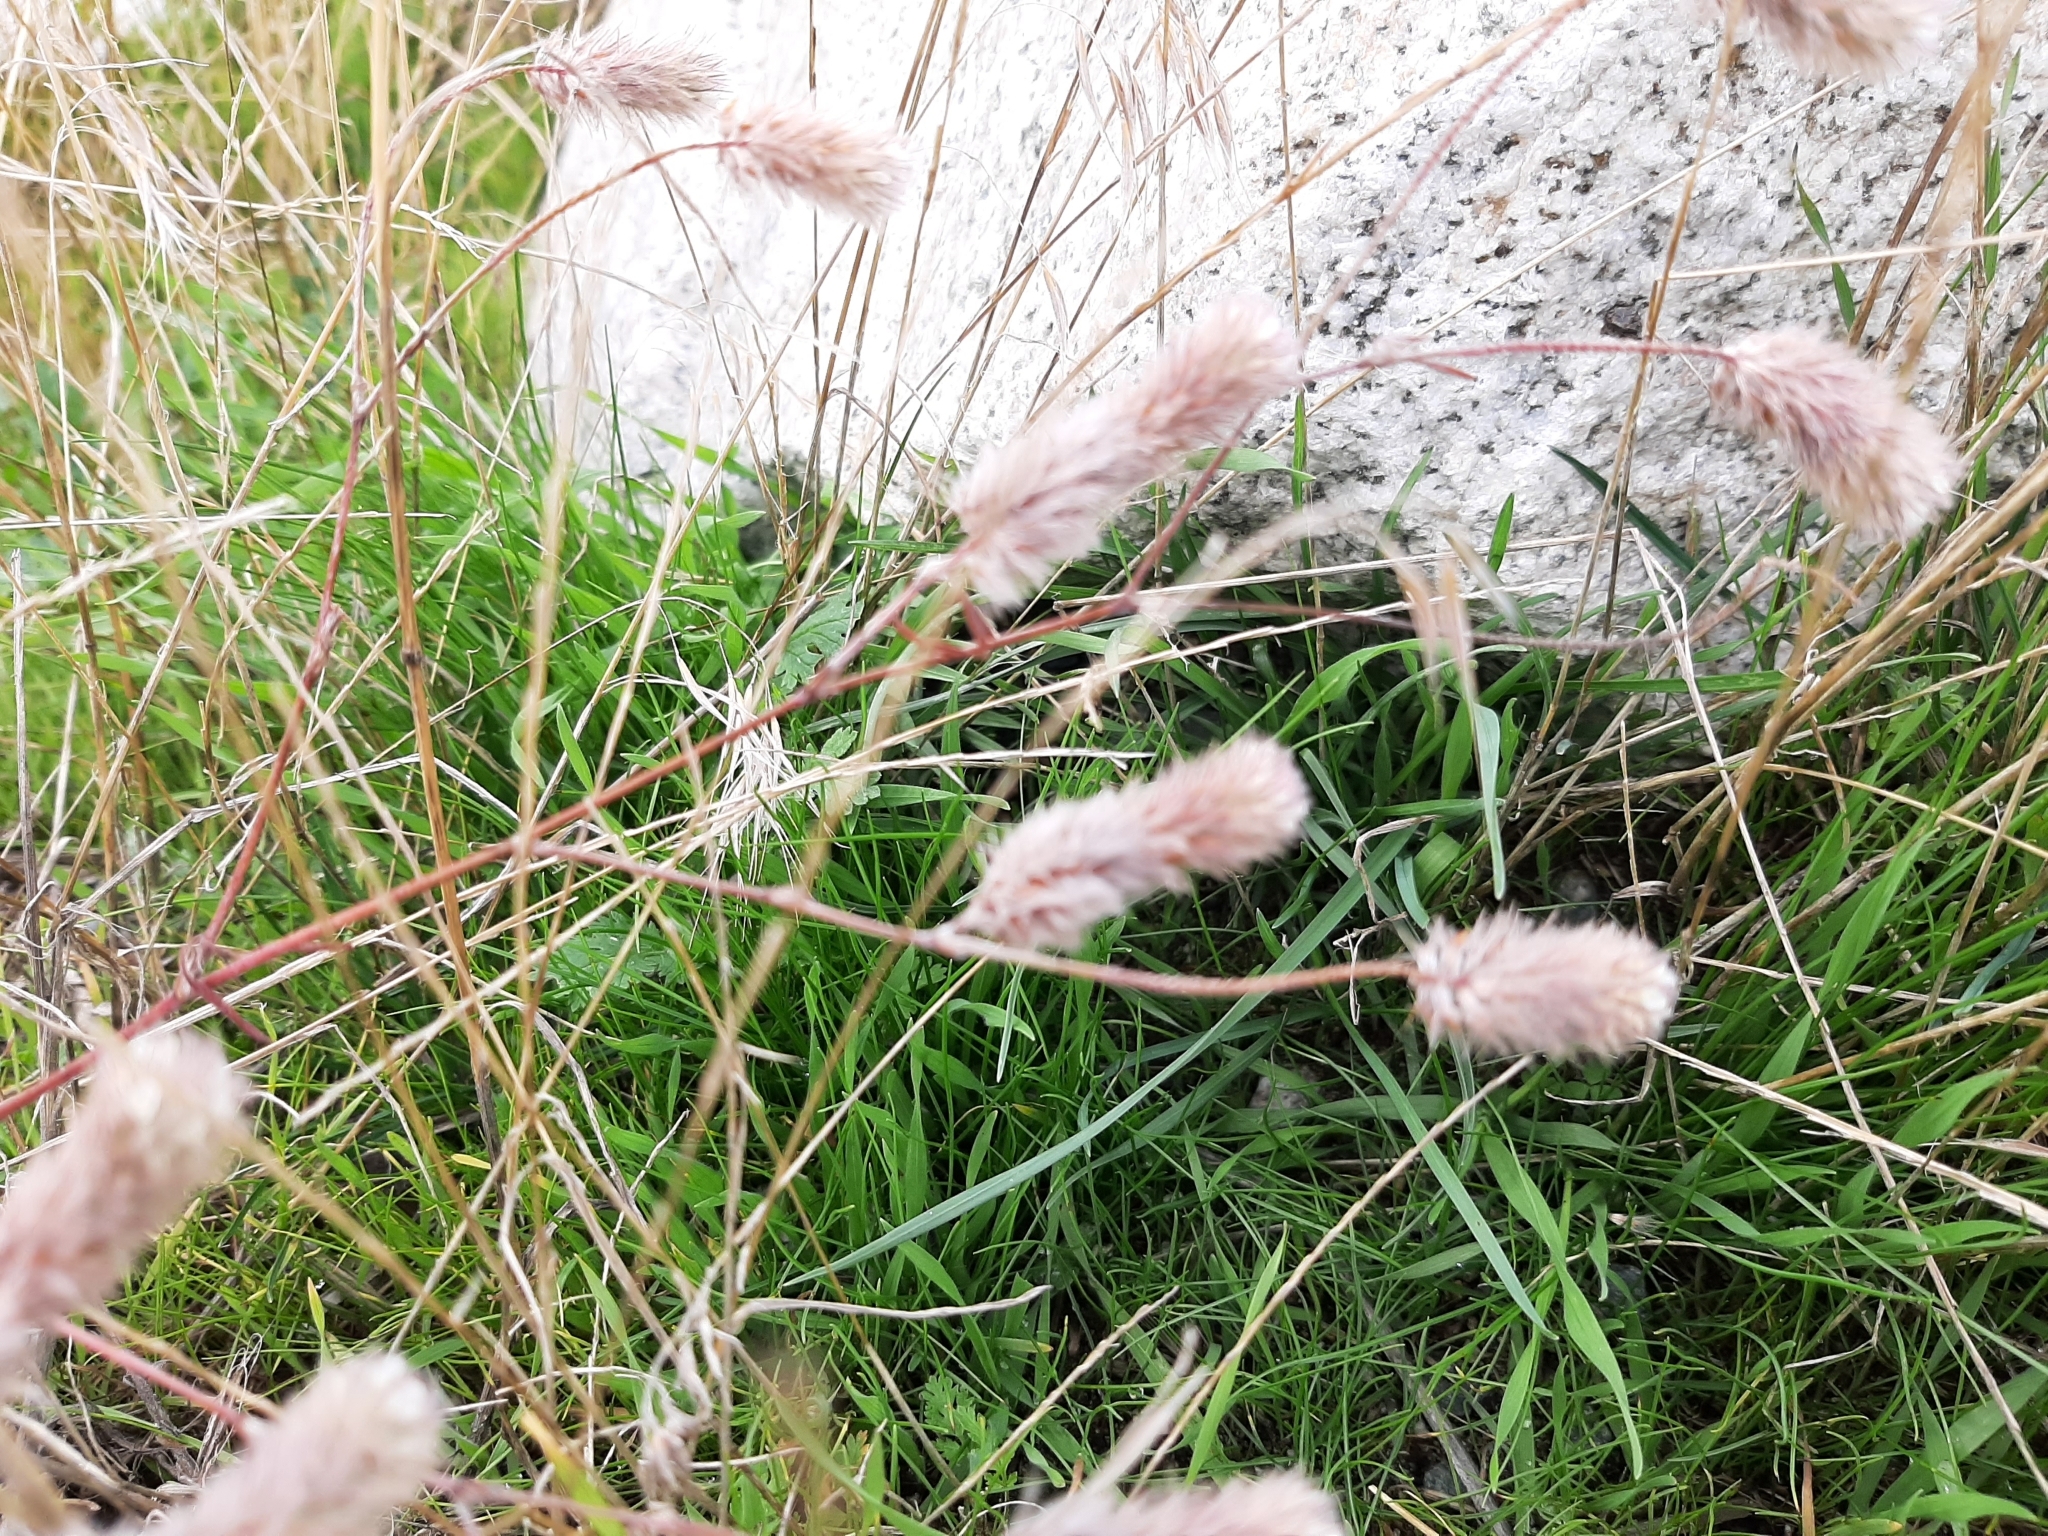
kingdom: Plantae
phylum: Tracheophyta
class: Magnoliopsida
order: Fabales
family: Fabaceae
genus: Trifolium
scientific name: Trifolium arvense
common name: Hare's-foot clover
